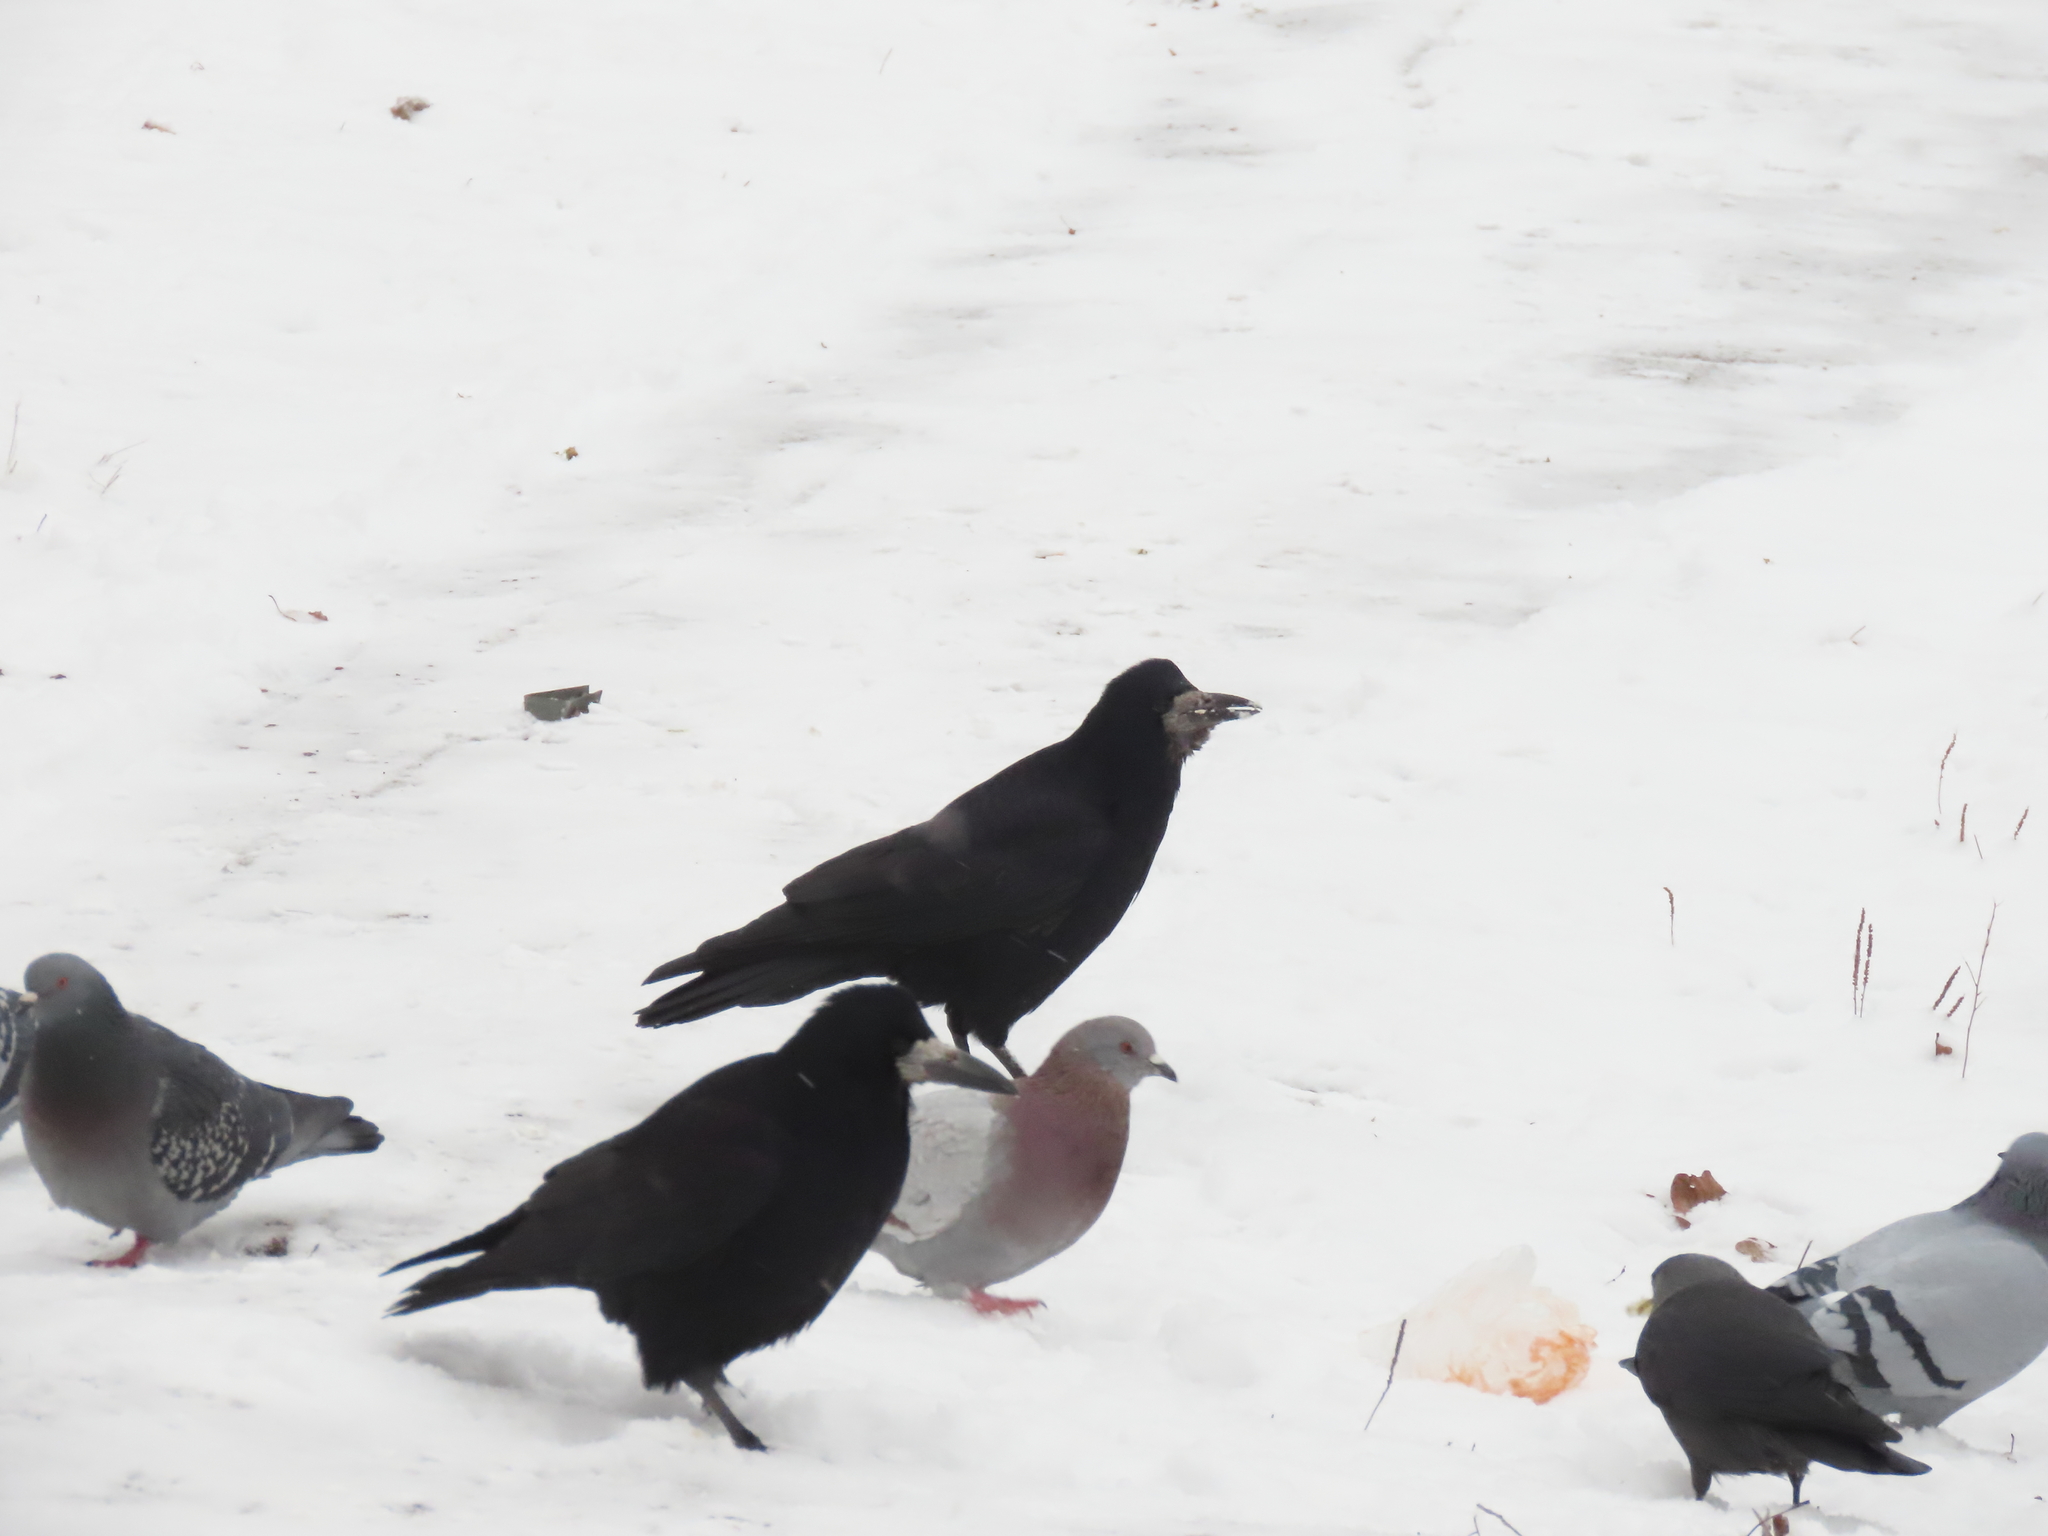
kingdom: Animalia
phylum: Chordata
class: Aves
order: Passeriformes
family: Corvidae
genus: Corvus
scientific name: Corvus frugilegus
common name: Rook
